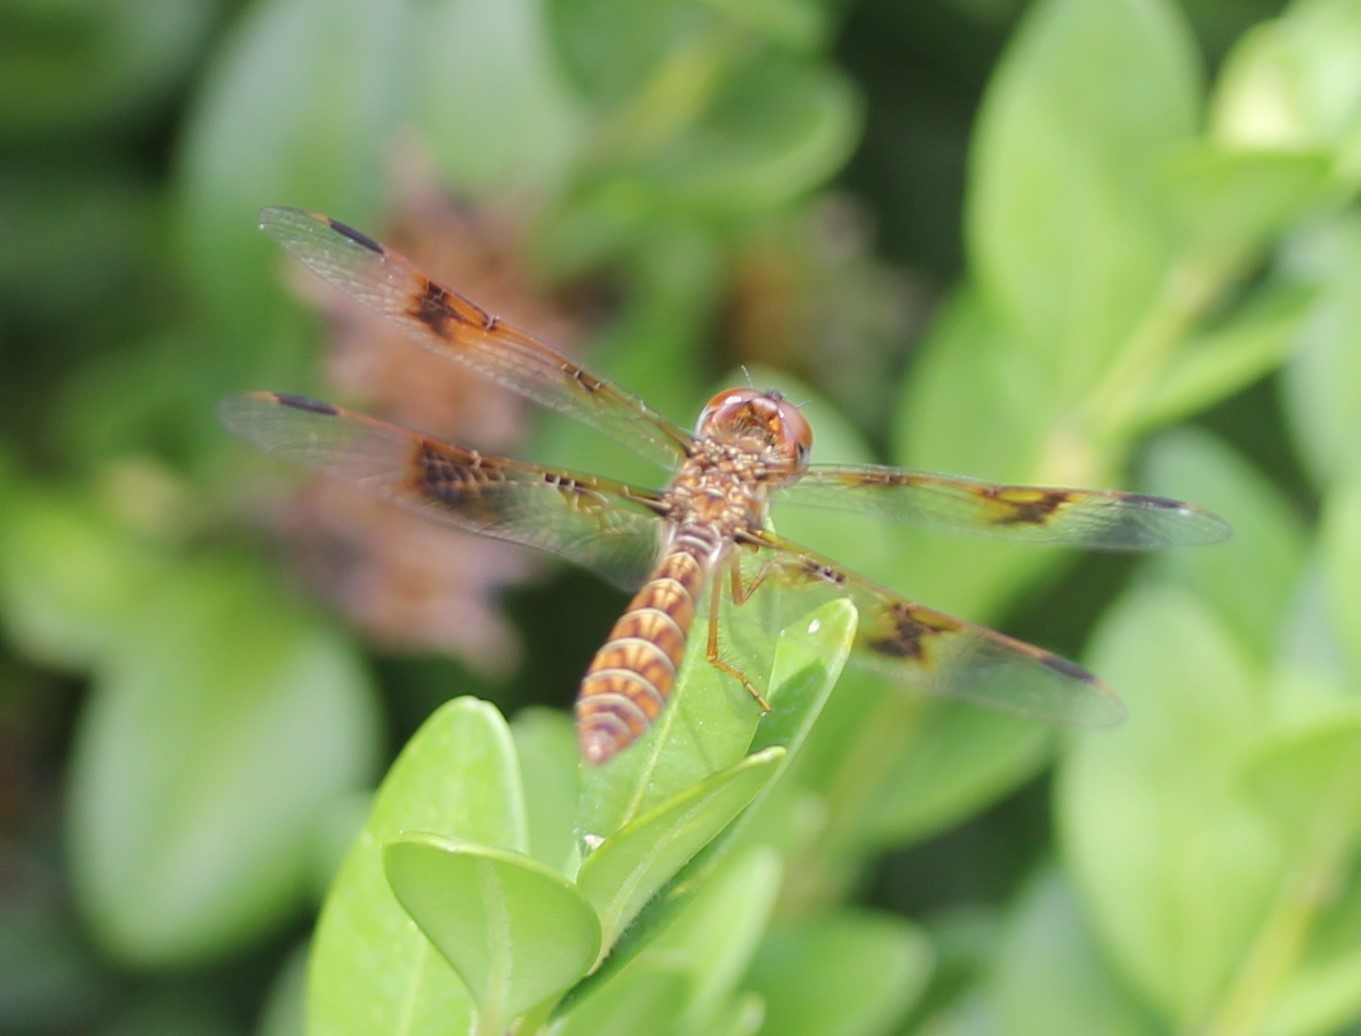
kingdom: Animalia
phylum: Arthropoda
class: Insecta
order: Odonata
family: Libellulidae
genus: Perithemis
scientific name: Perithemis tenera
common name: Eastern amberwing
